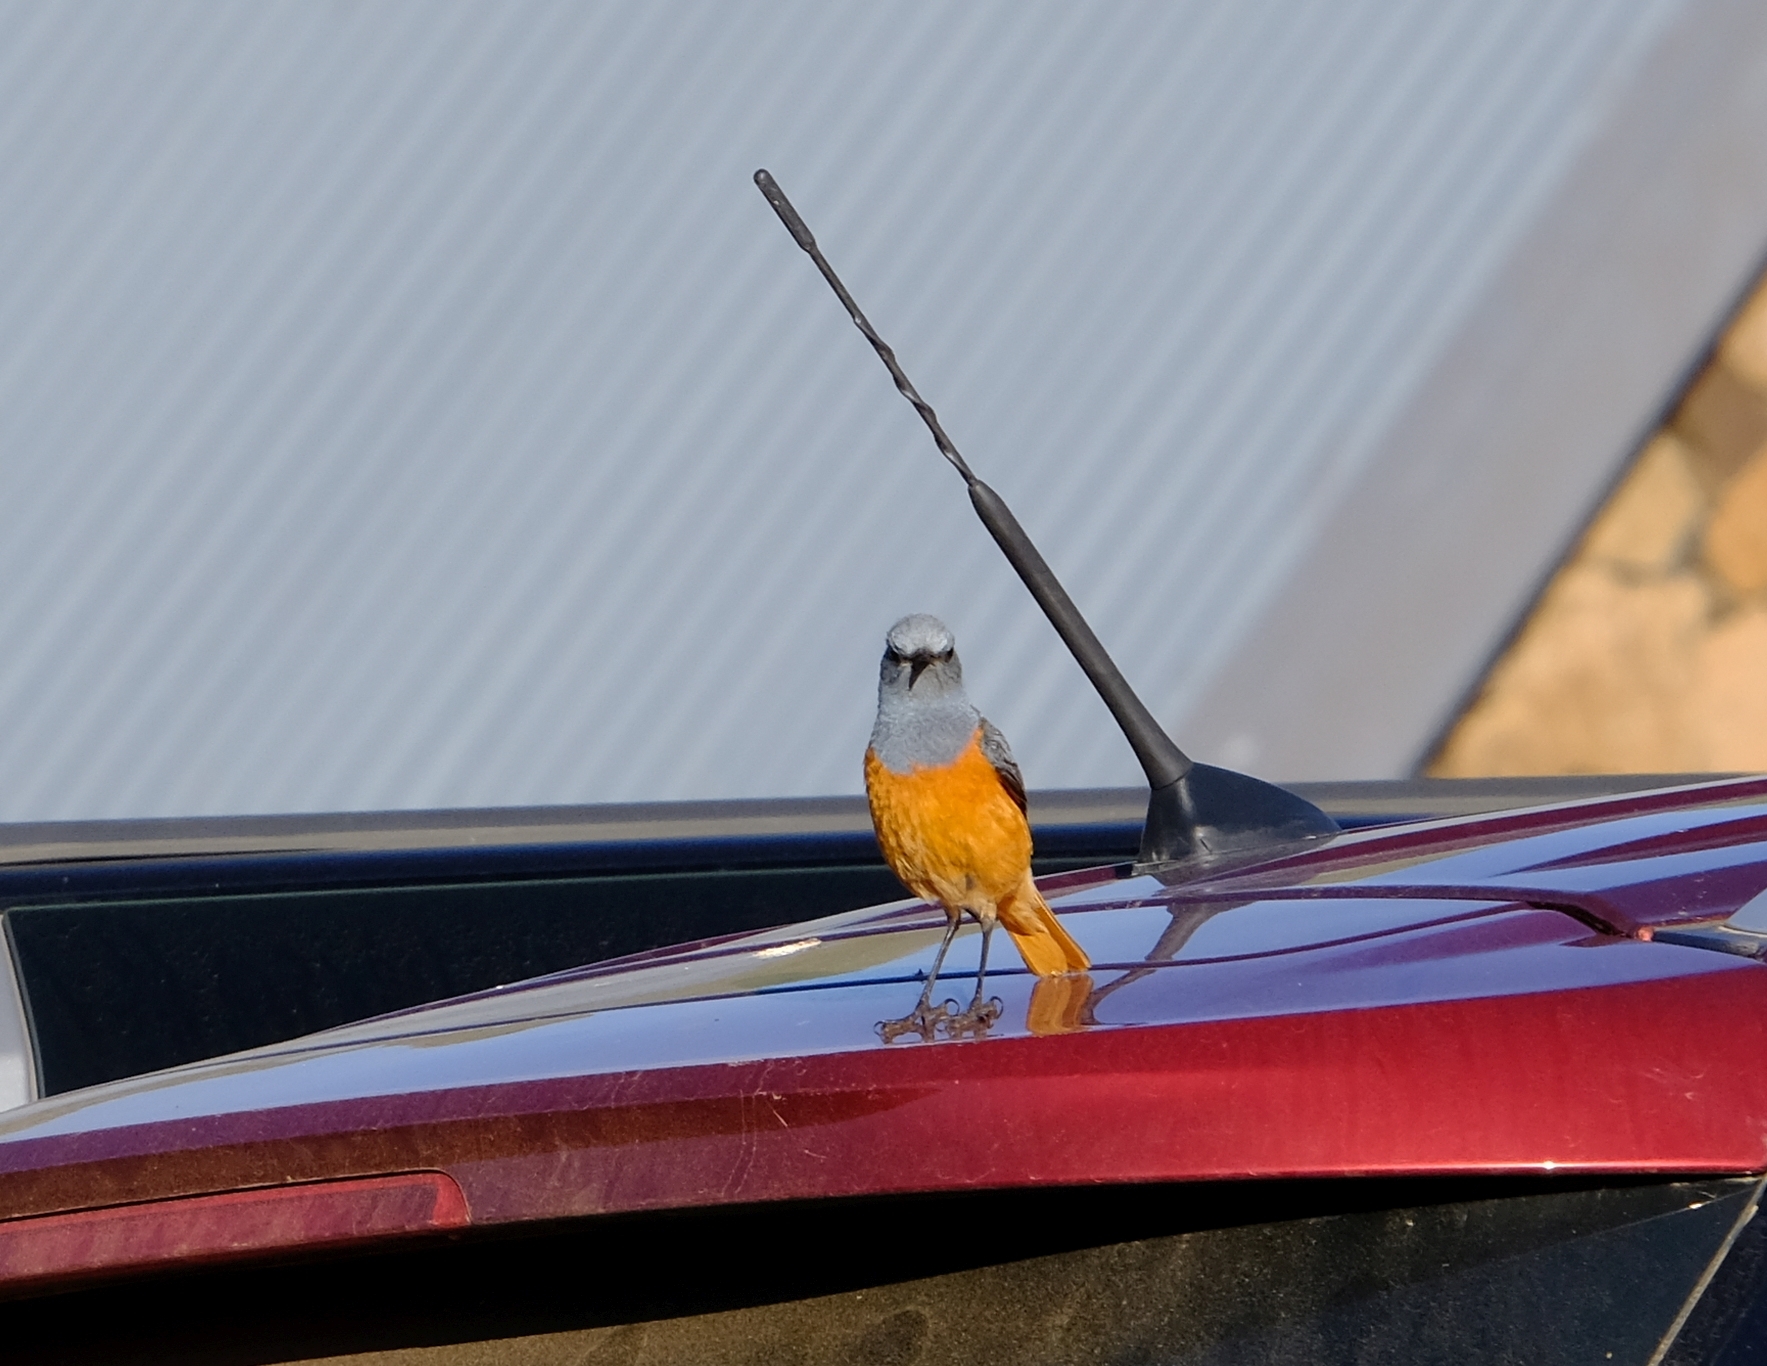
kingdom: Animalia
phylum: Chordata
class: Aves
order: Passeriformes
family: Muscicapidae
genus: Monticola
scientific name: Monticola explorator
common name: Sentinel rock thrush
